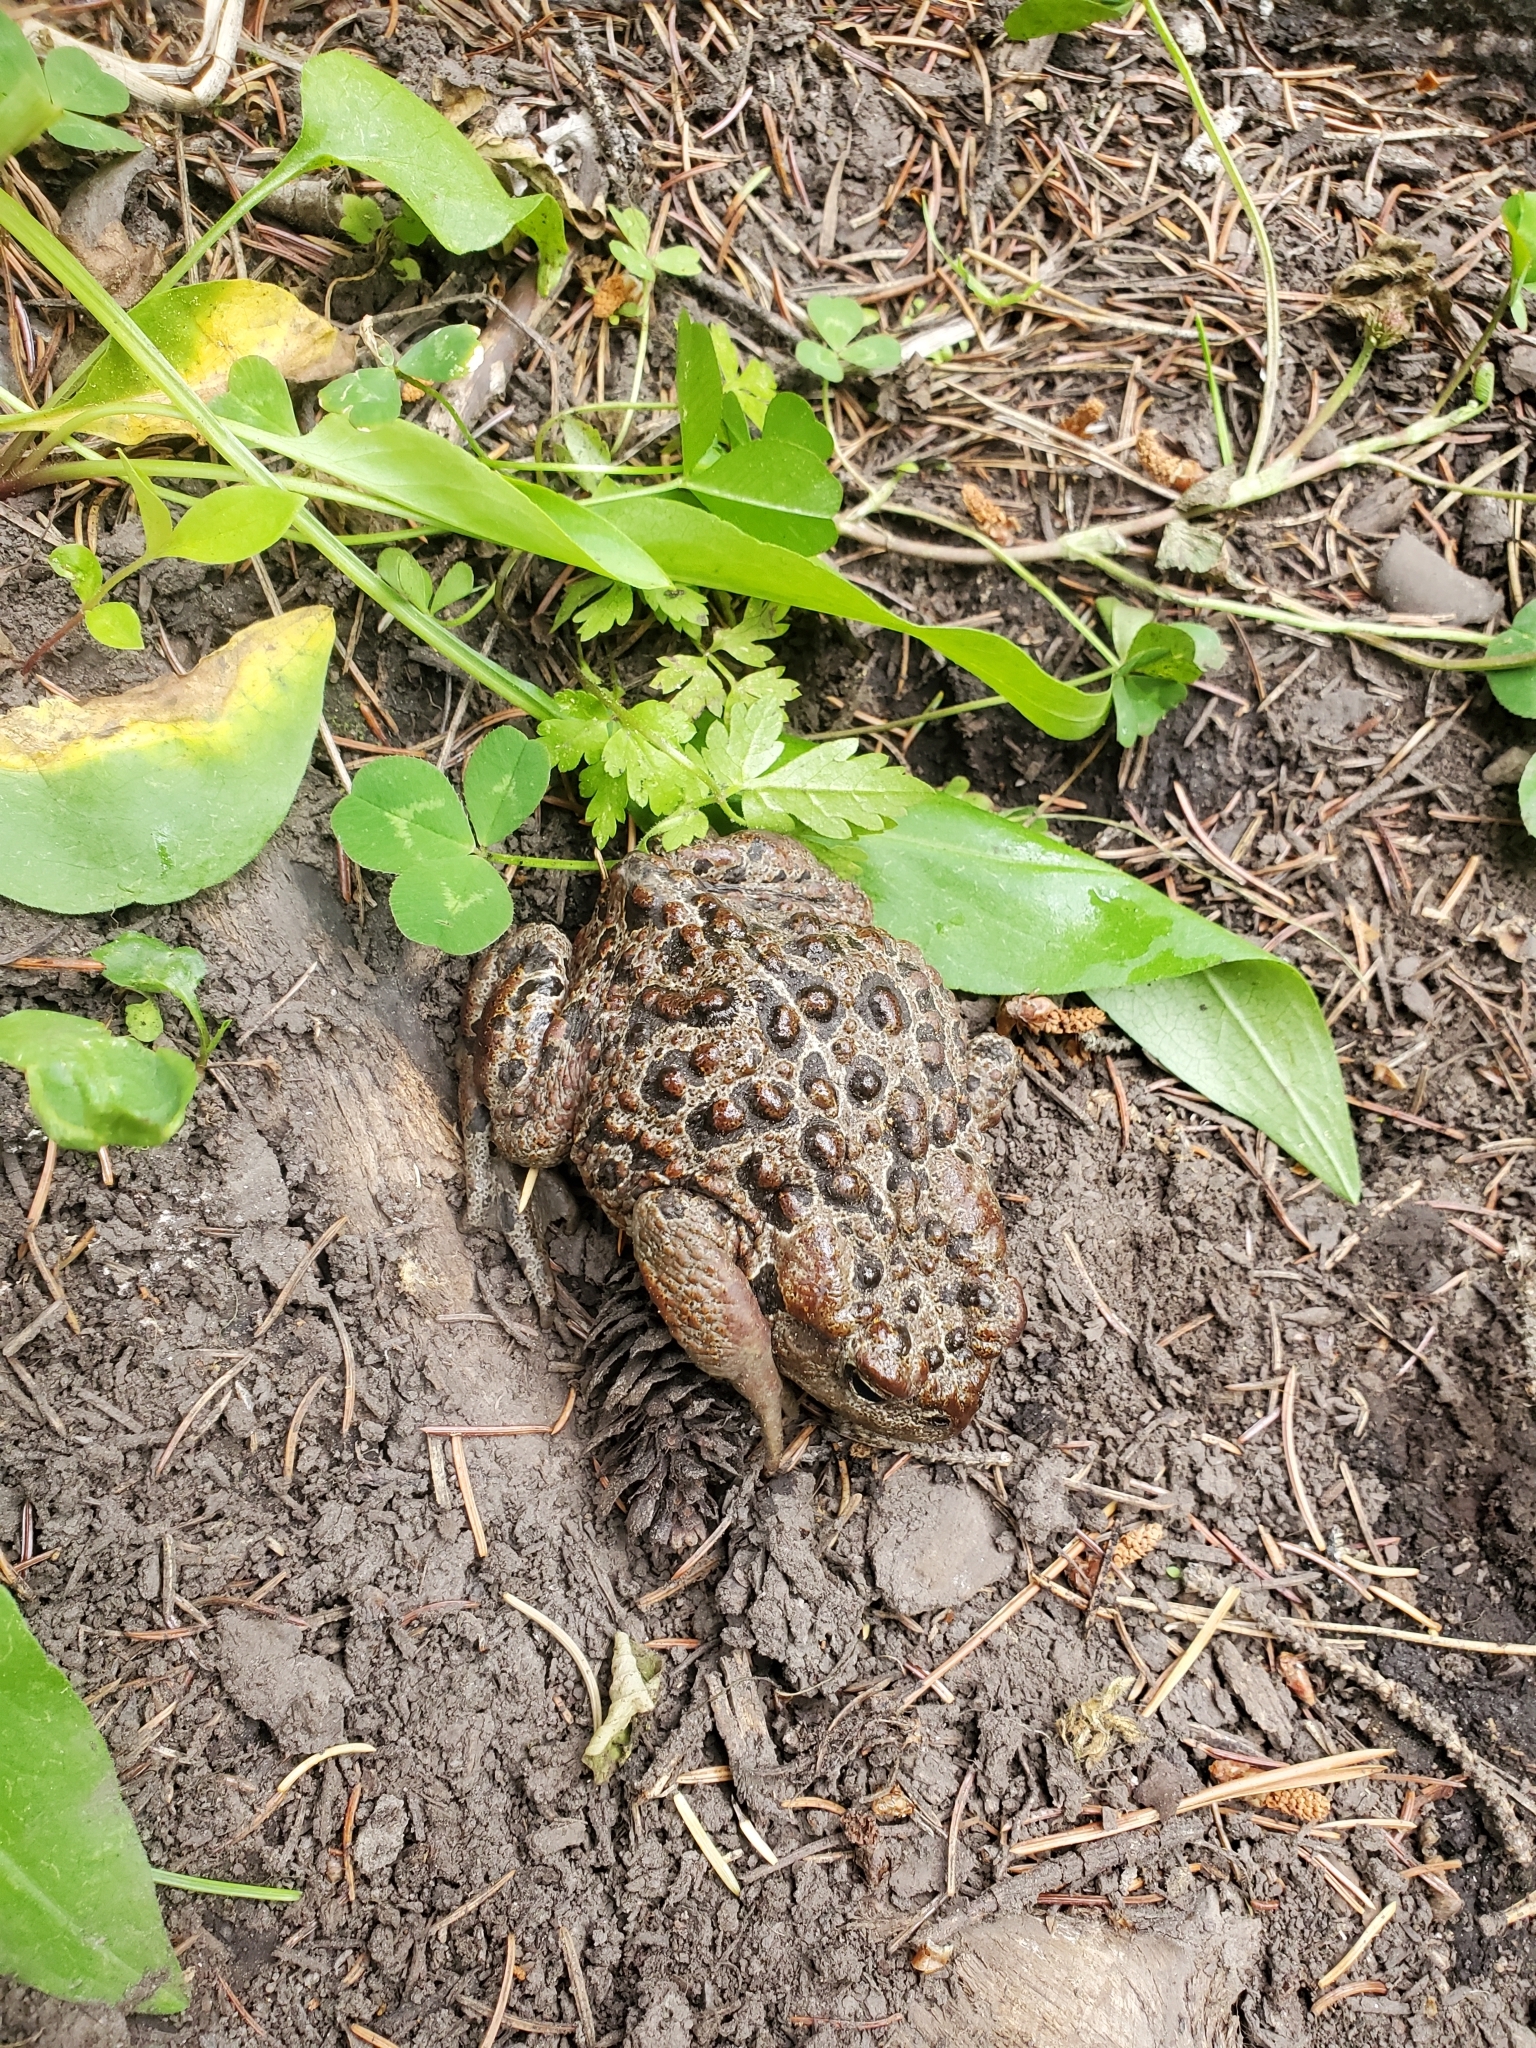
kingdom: Animalia
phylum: Chordata
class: Amphibia
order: Anura
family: Bufonidae
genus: Anaxyrus
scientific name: Anaxyrus boreas
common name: Western toad
